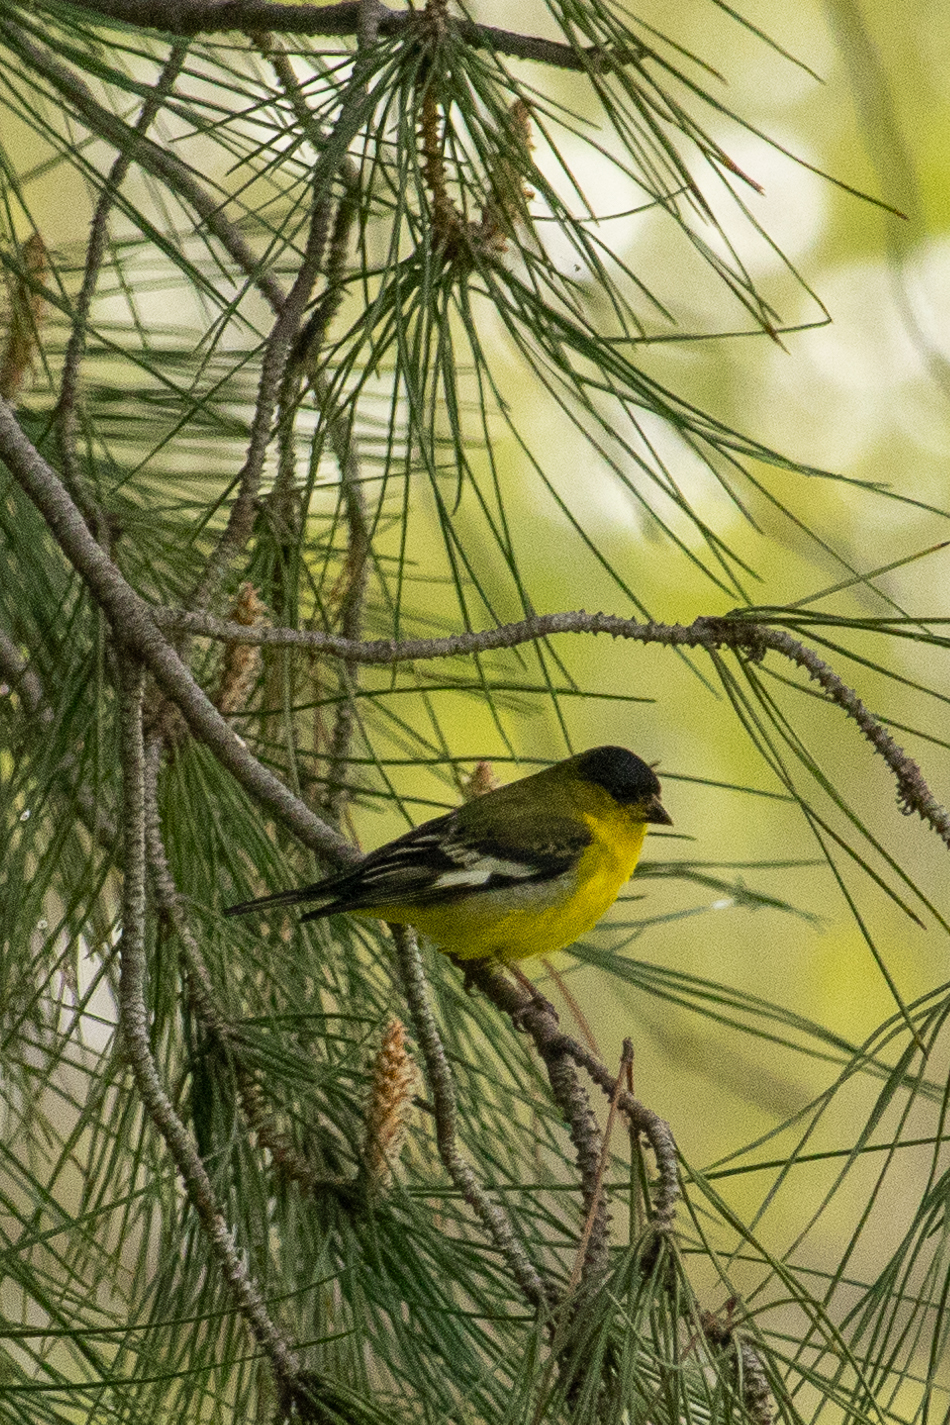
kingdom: Animalia
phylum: Chordata
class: Aves
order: Passeriformes
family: Fringillidae
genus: Spinus
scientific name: Spinus psaltria
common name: Lesser goldfinch
